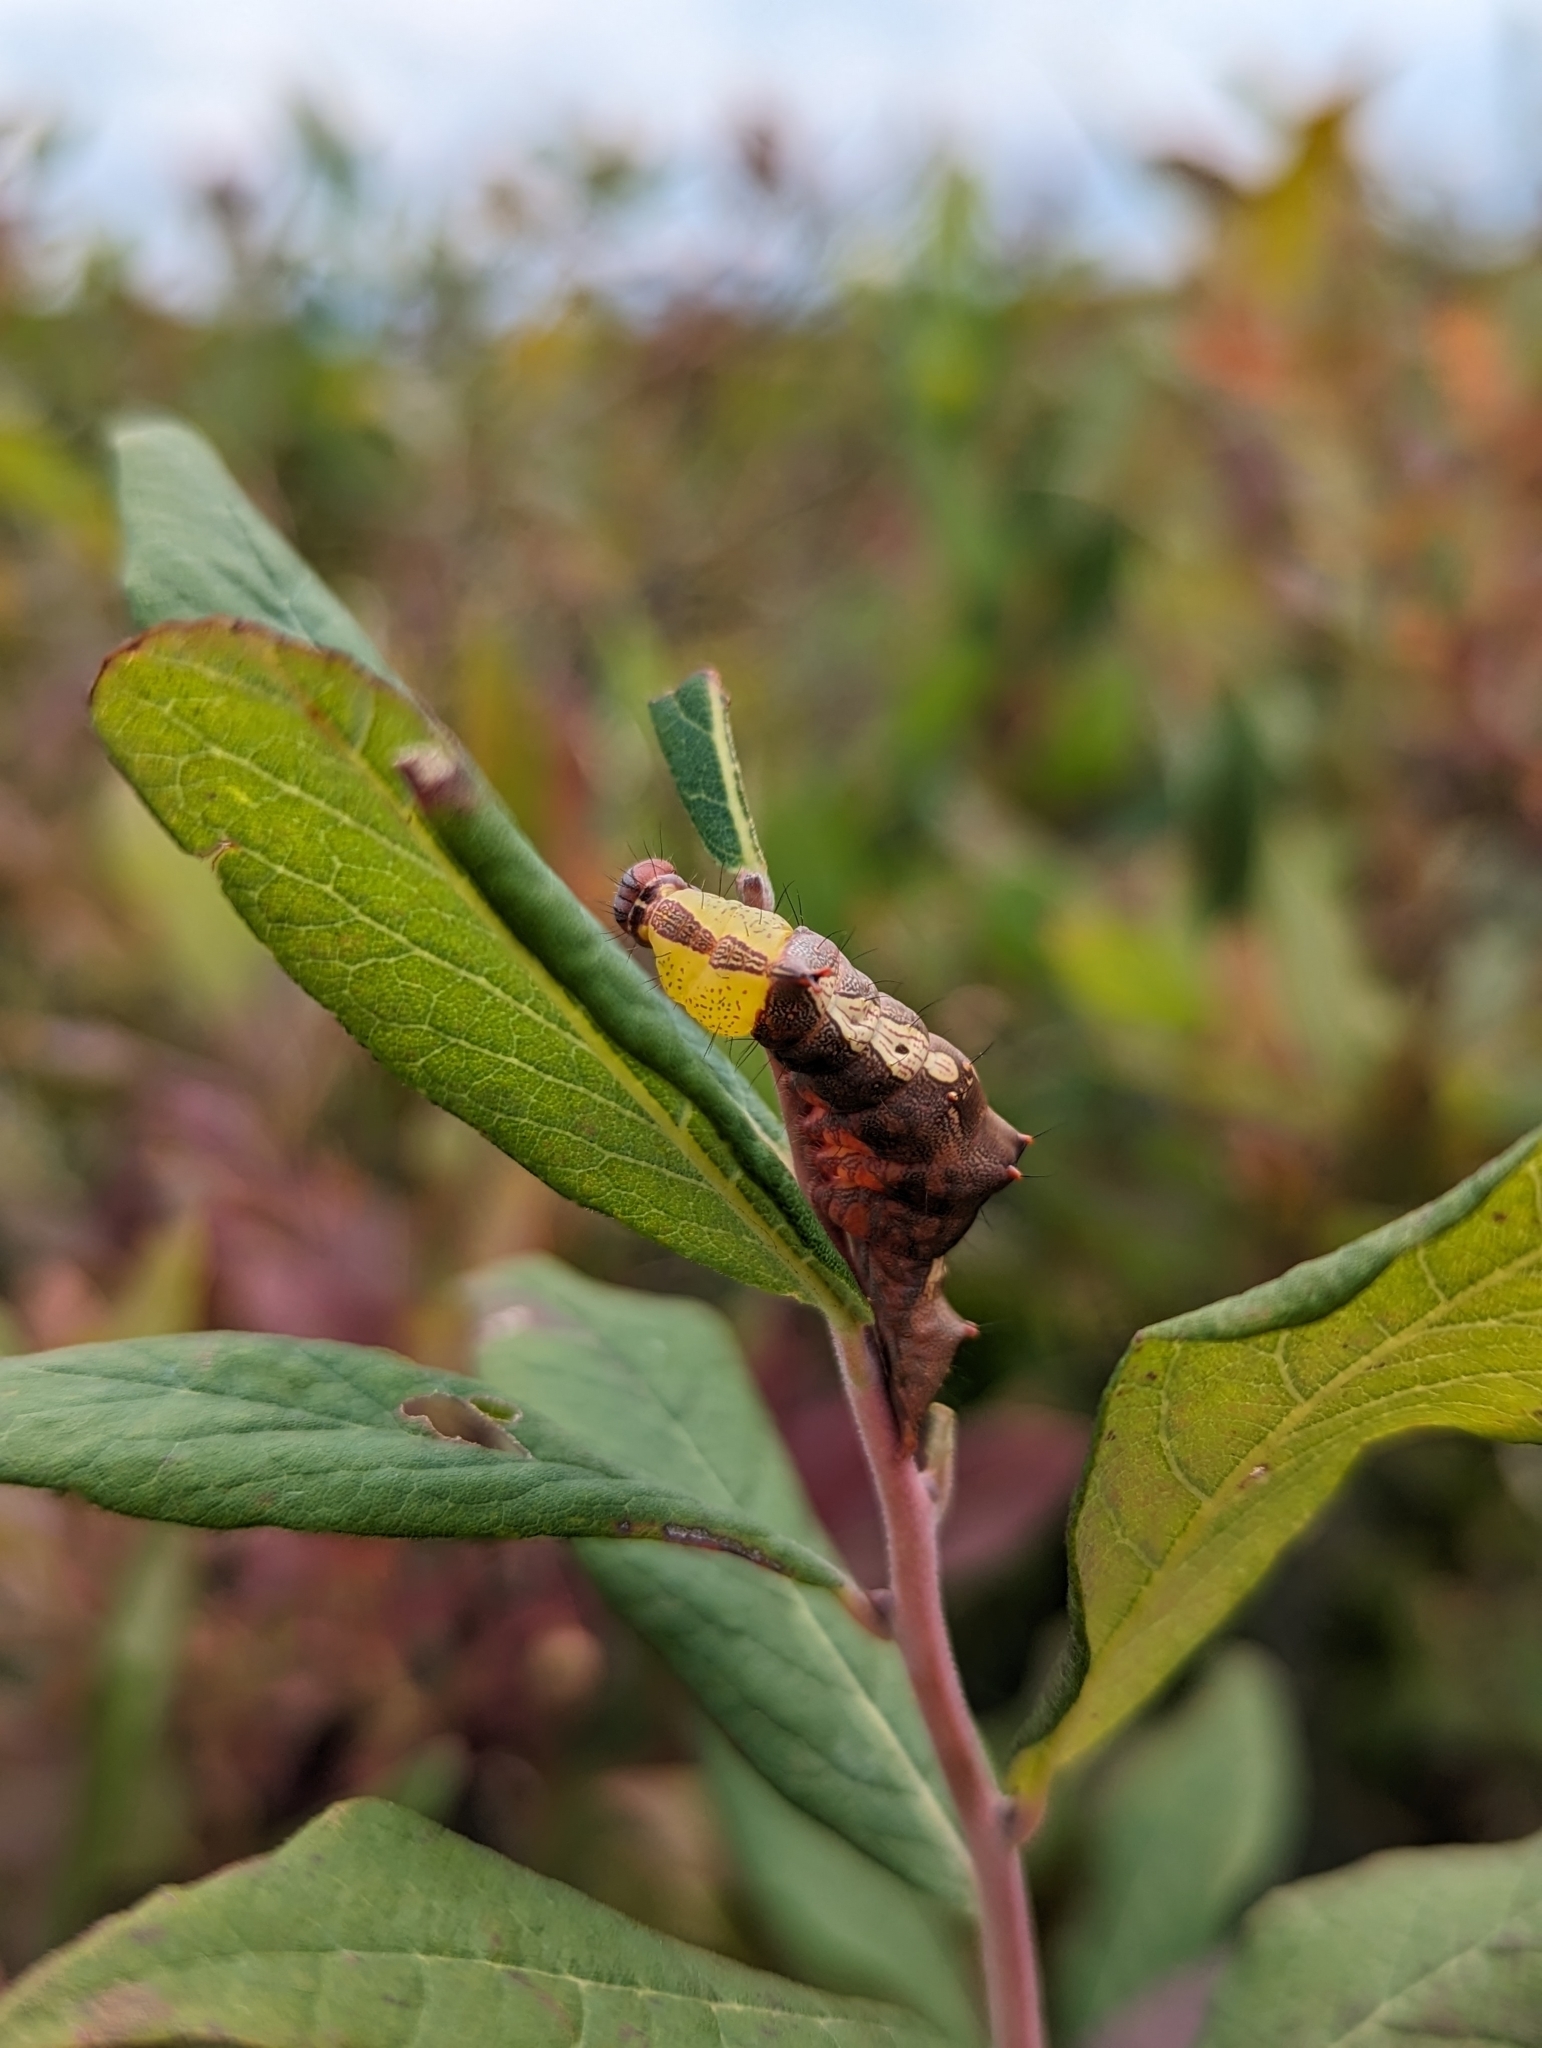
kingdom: Animalia
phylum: Arthropoda
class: Insecta
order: Lepidoptera
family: Notodontidae
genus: Schizura
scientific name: Schizura ipomaeae
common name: Morning-glory prominent
